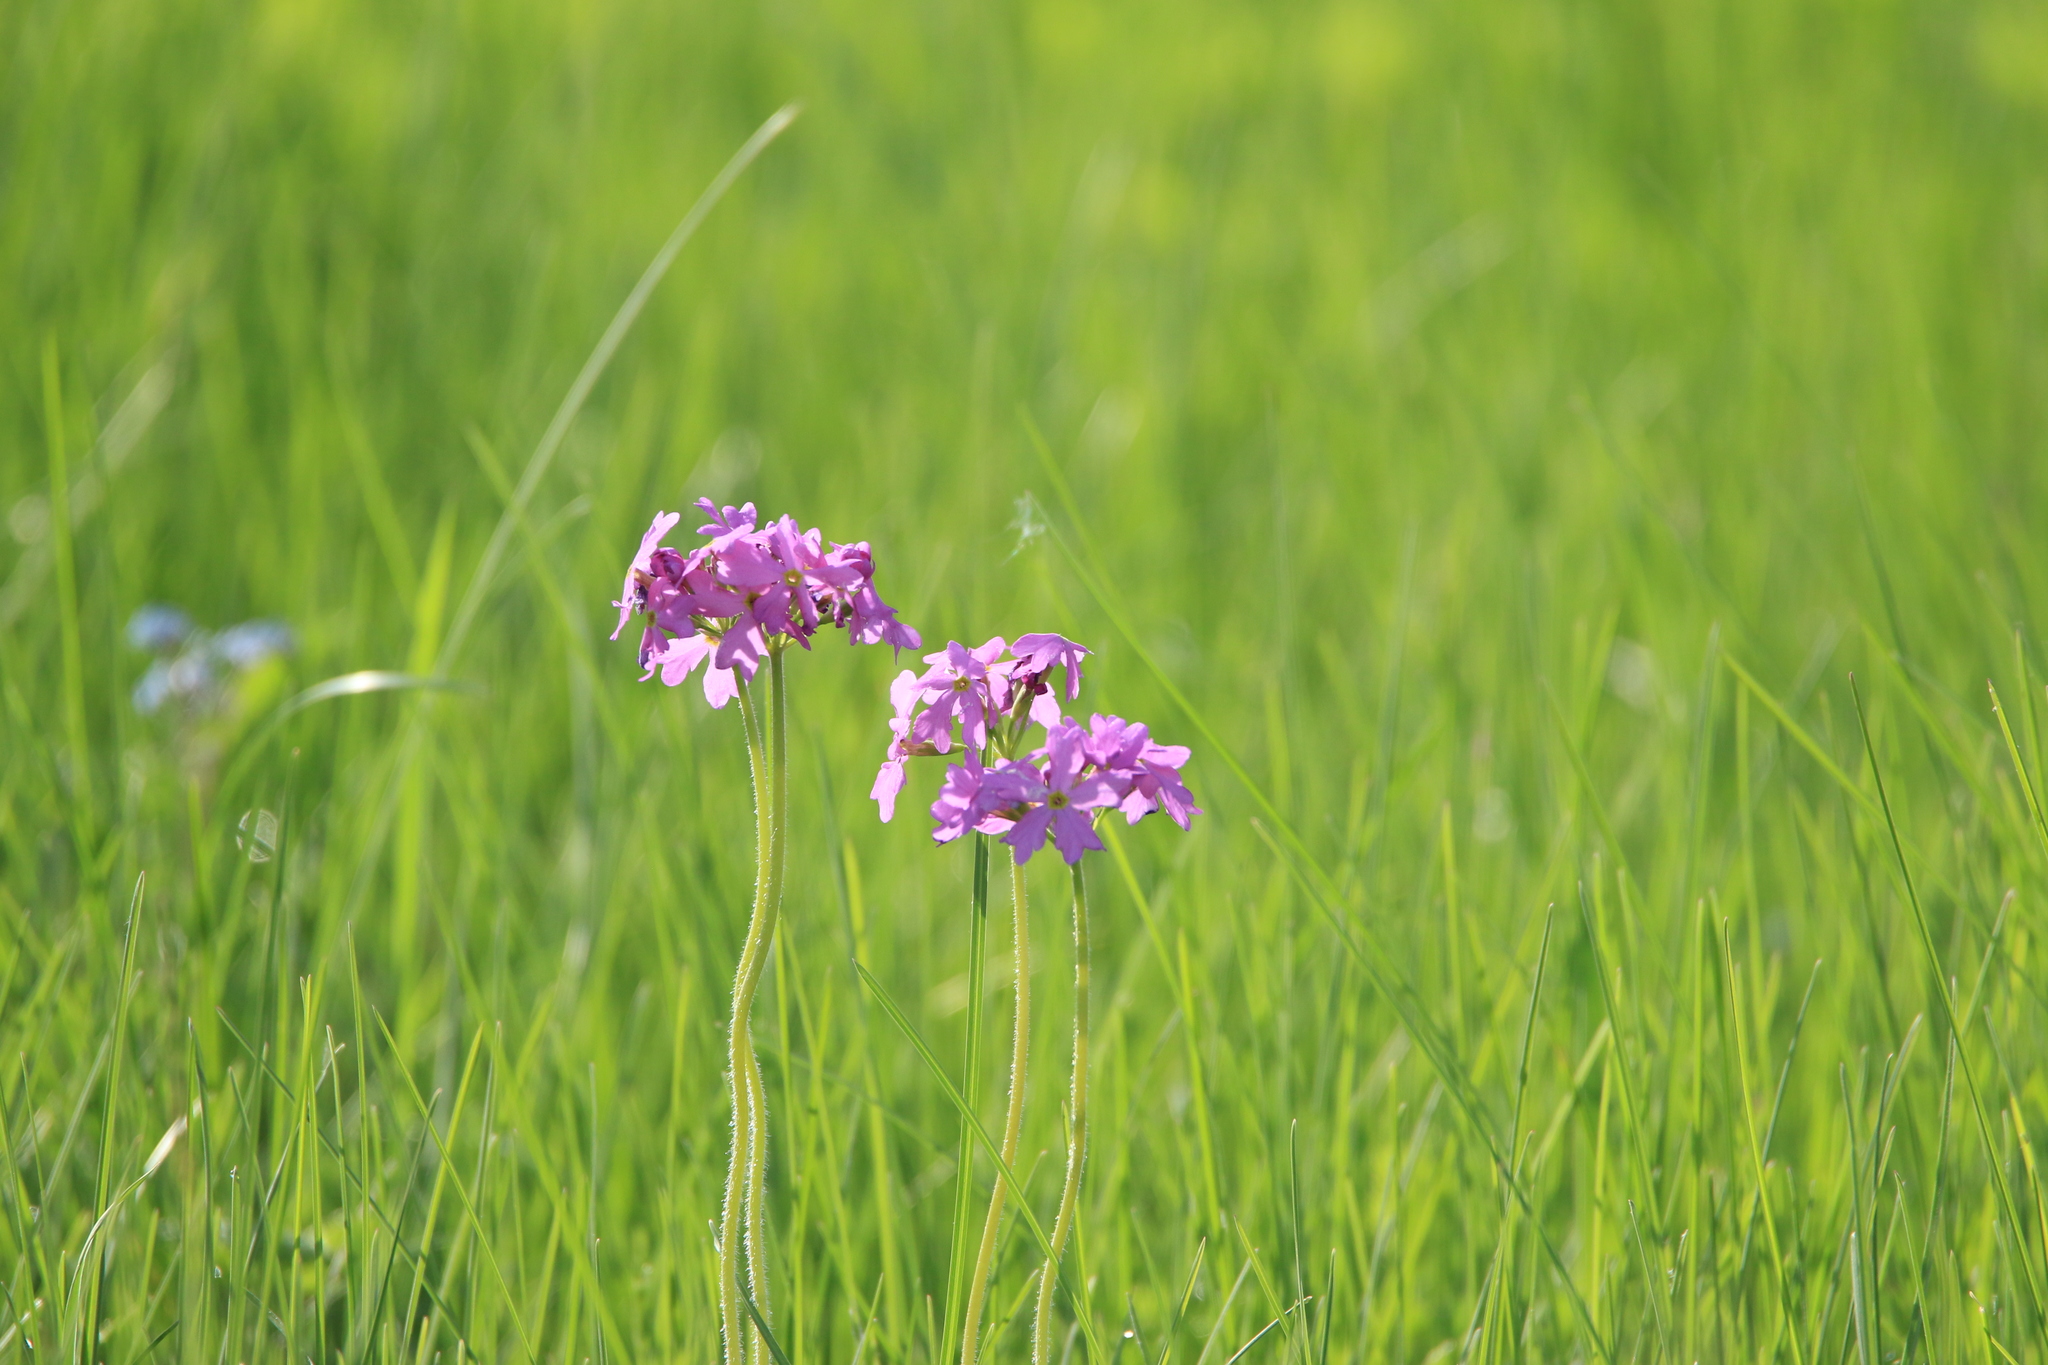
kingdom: Plantae
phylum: Tracheophyta
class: Magnoliopsida
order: Ericales
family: Primulaceae
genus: Primula
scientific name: Primula cortusoides
